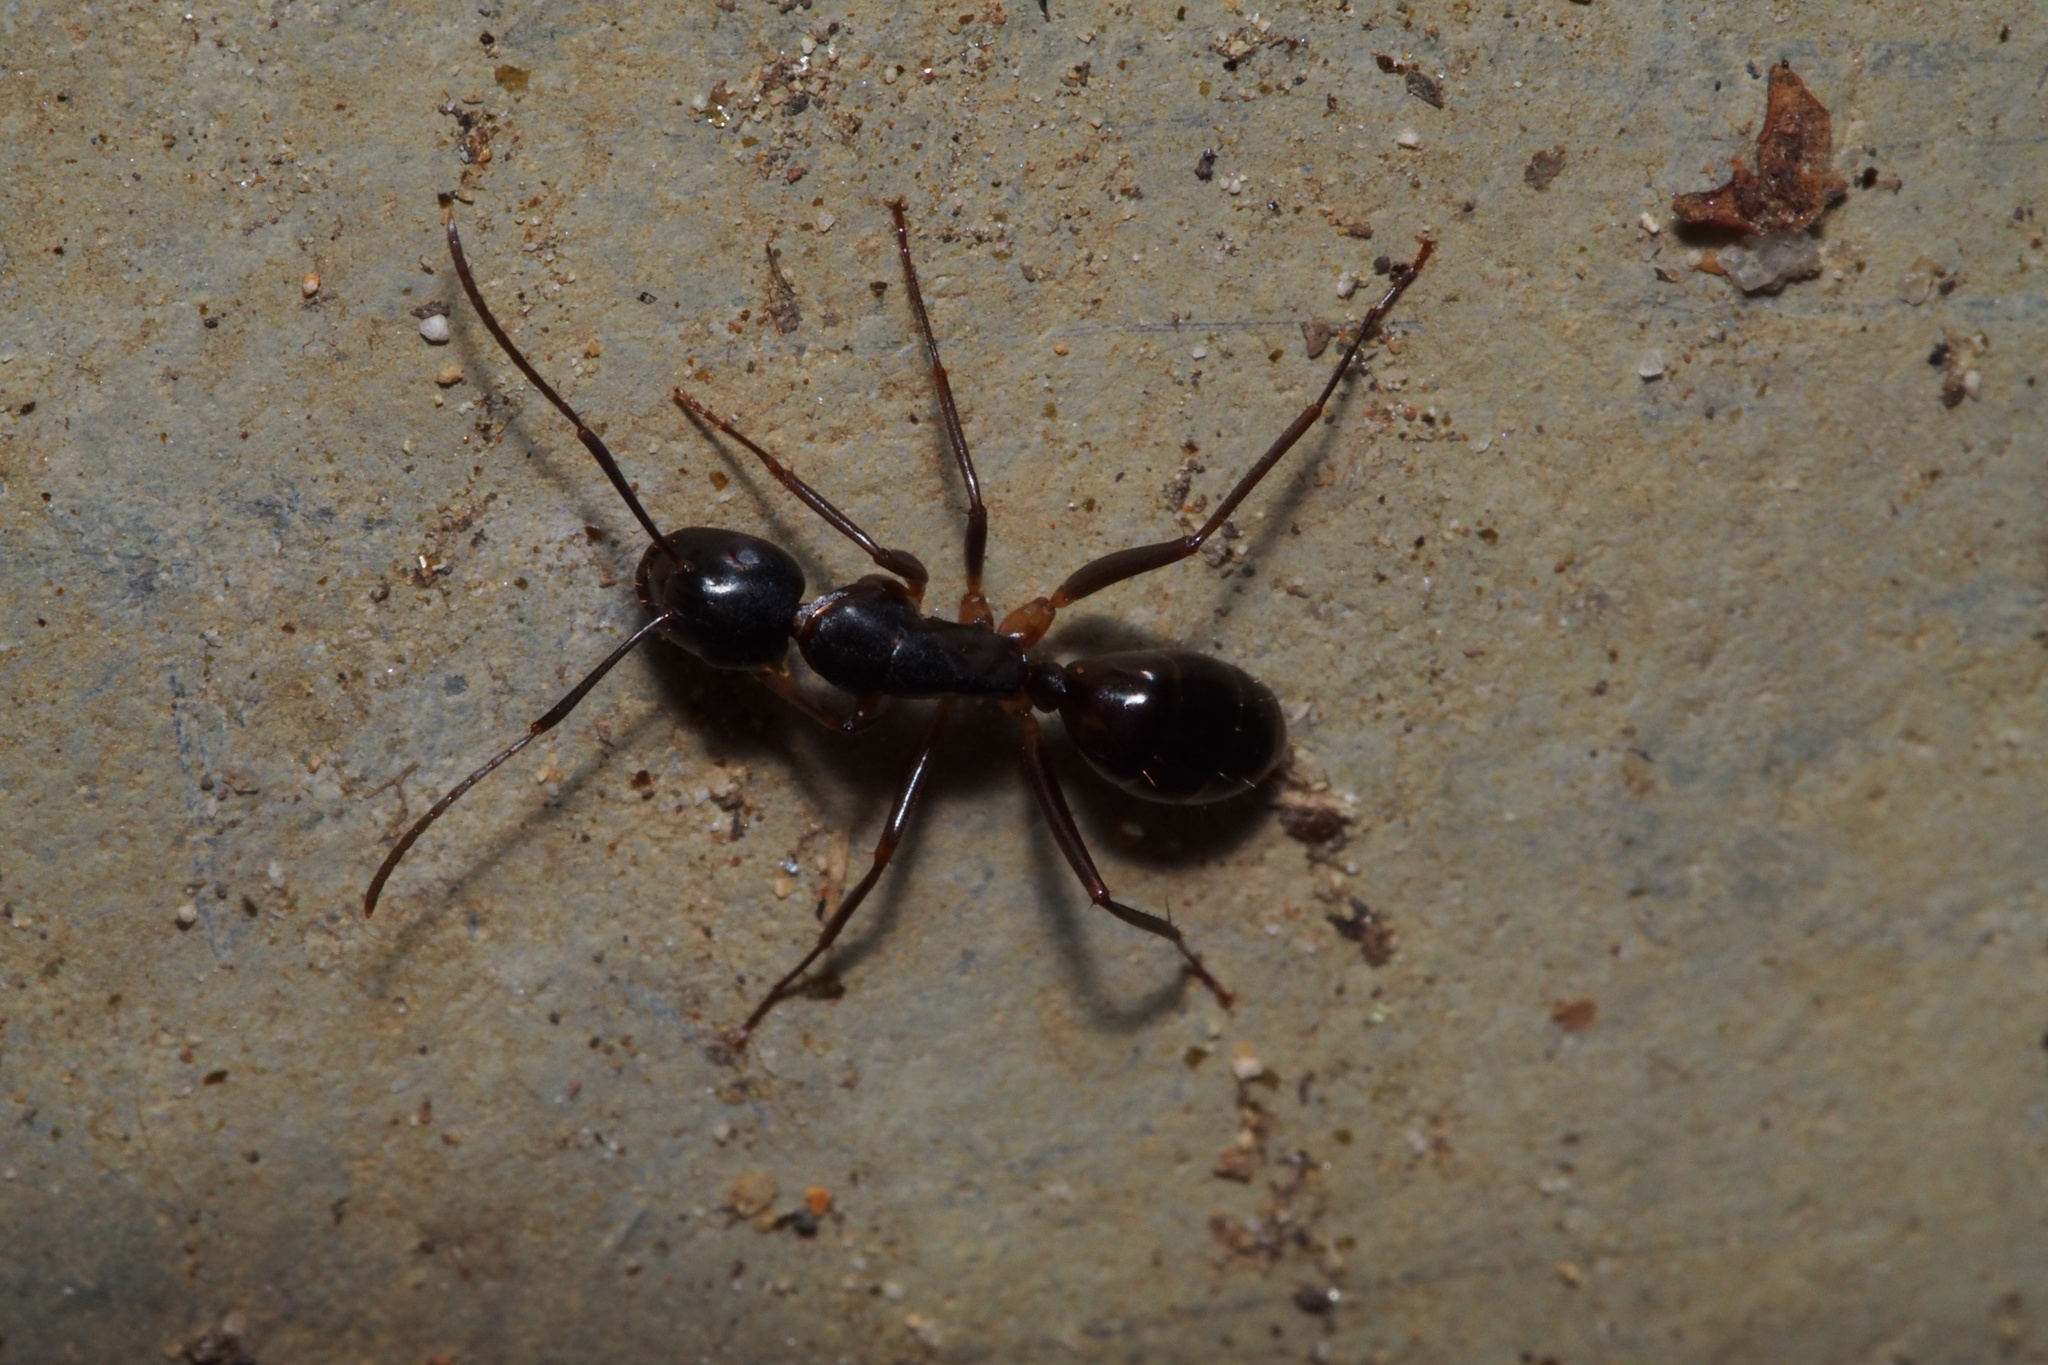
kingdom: Animalia
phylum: Arthropoda
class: Insecta
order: Hymenoptera
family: Formicidae
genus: Camponotus
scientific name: Camponotus kiusiuensis
